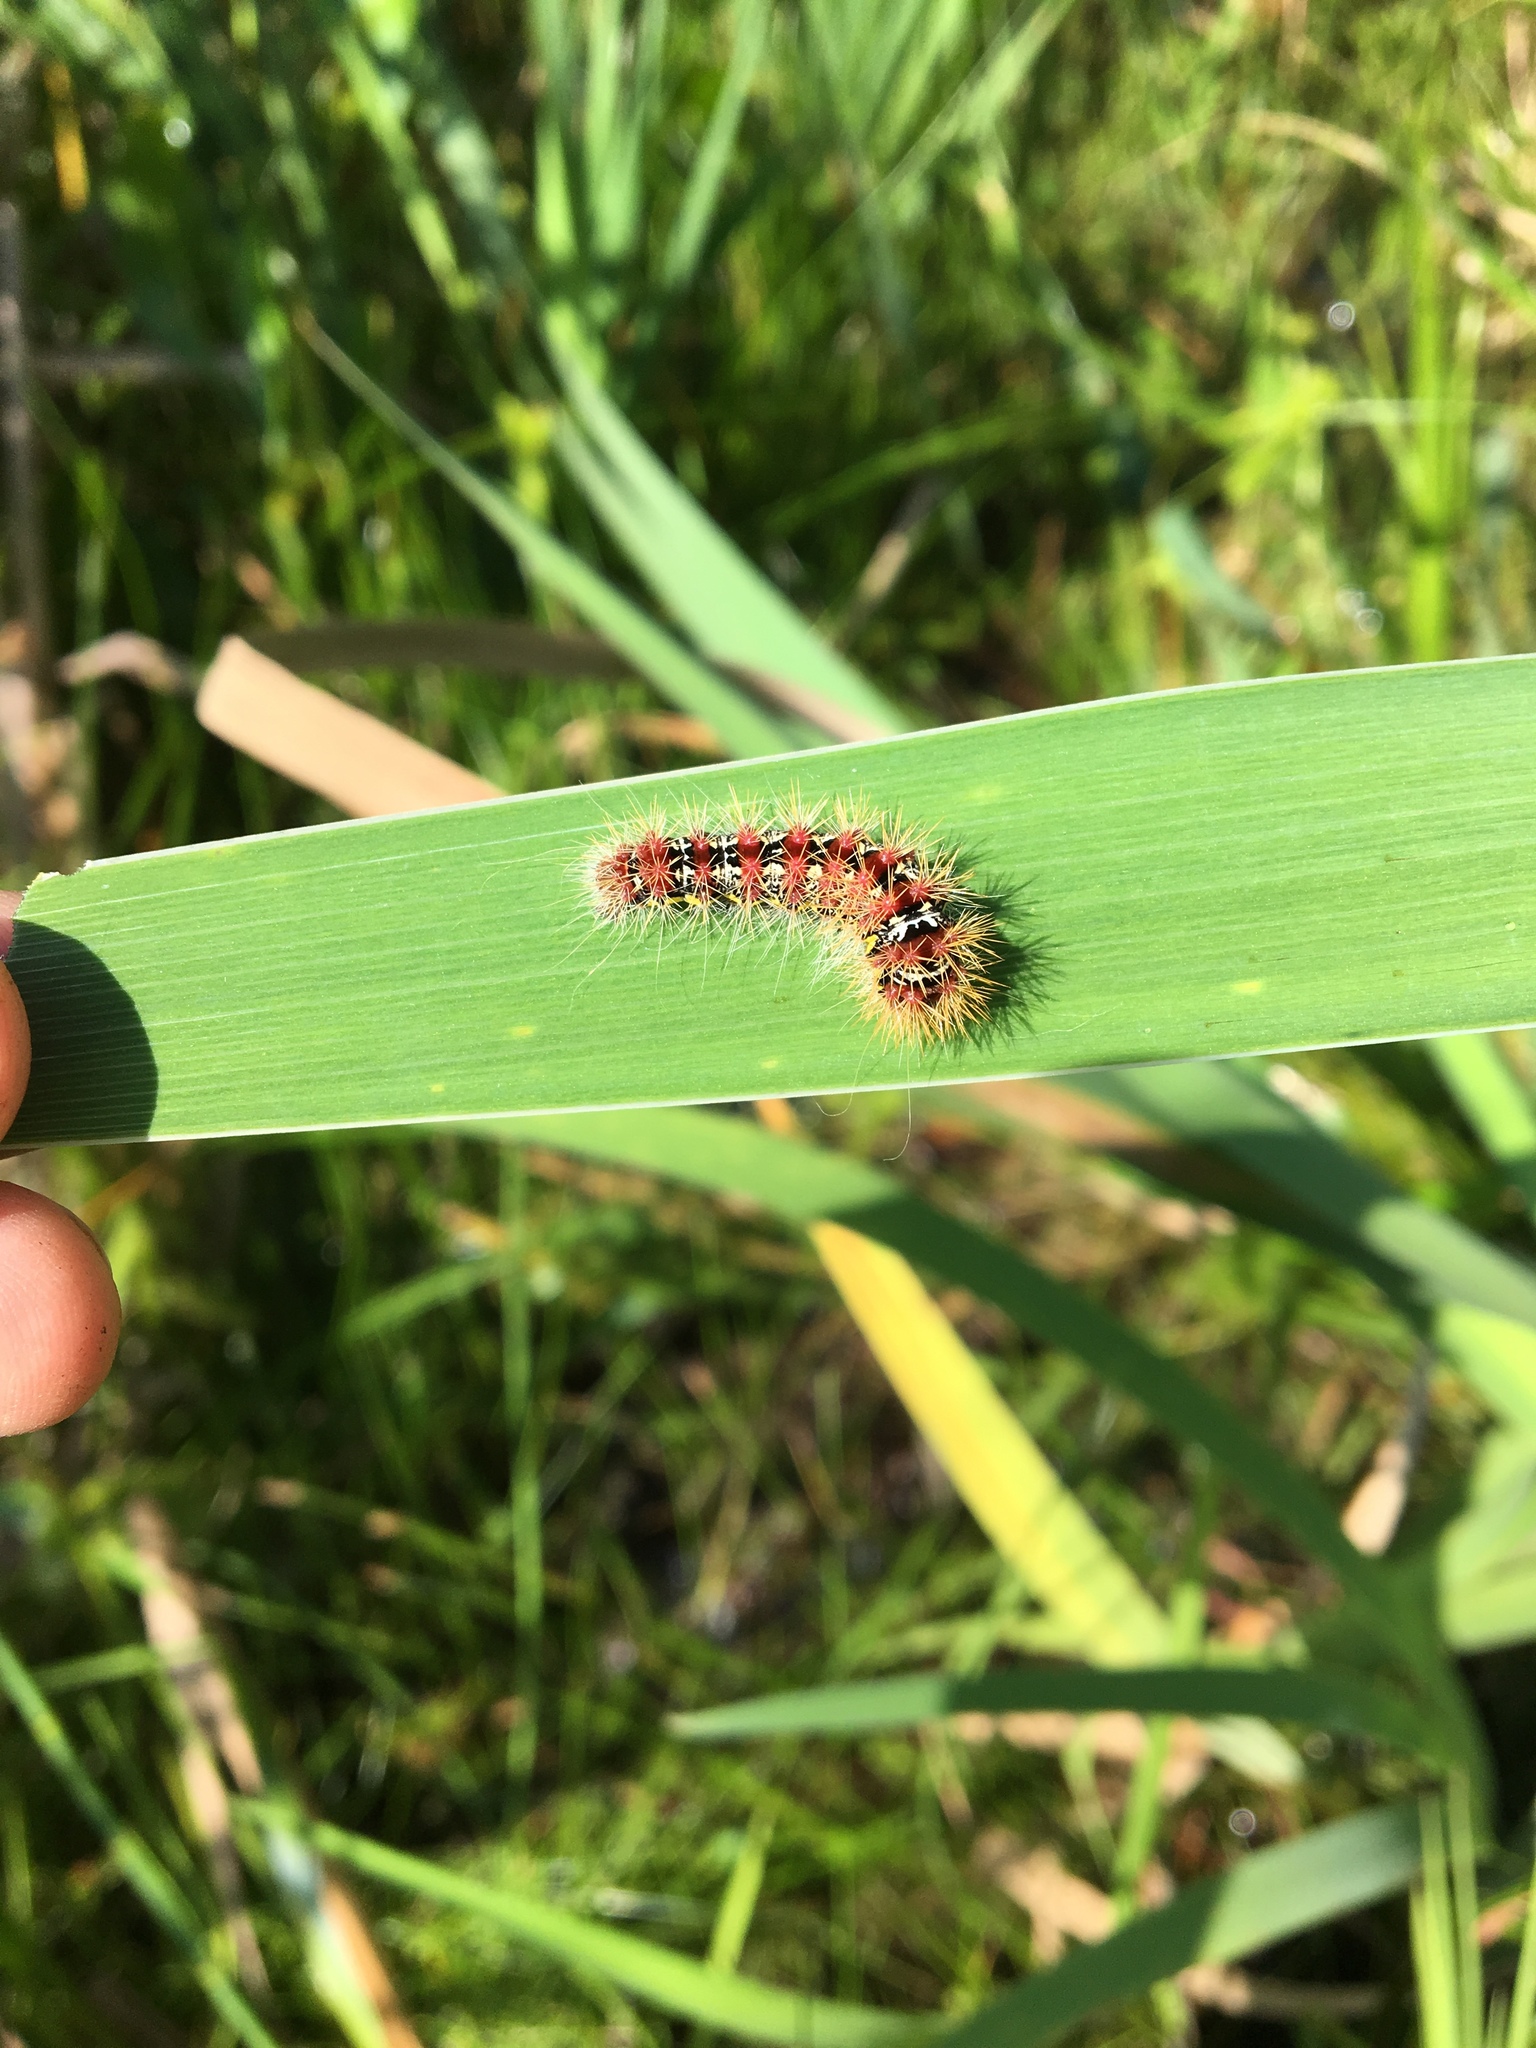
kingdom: Animalia
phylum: Arthropoda
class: Insecta
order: Lepidoptera
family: Noctuidae
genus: Acronicta
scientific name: Acronicta oblinita
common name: Smeared dagger
